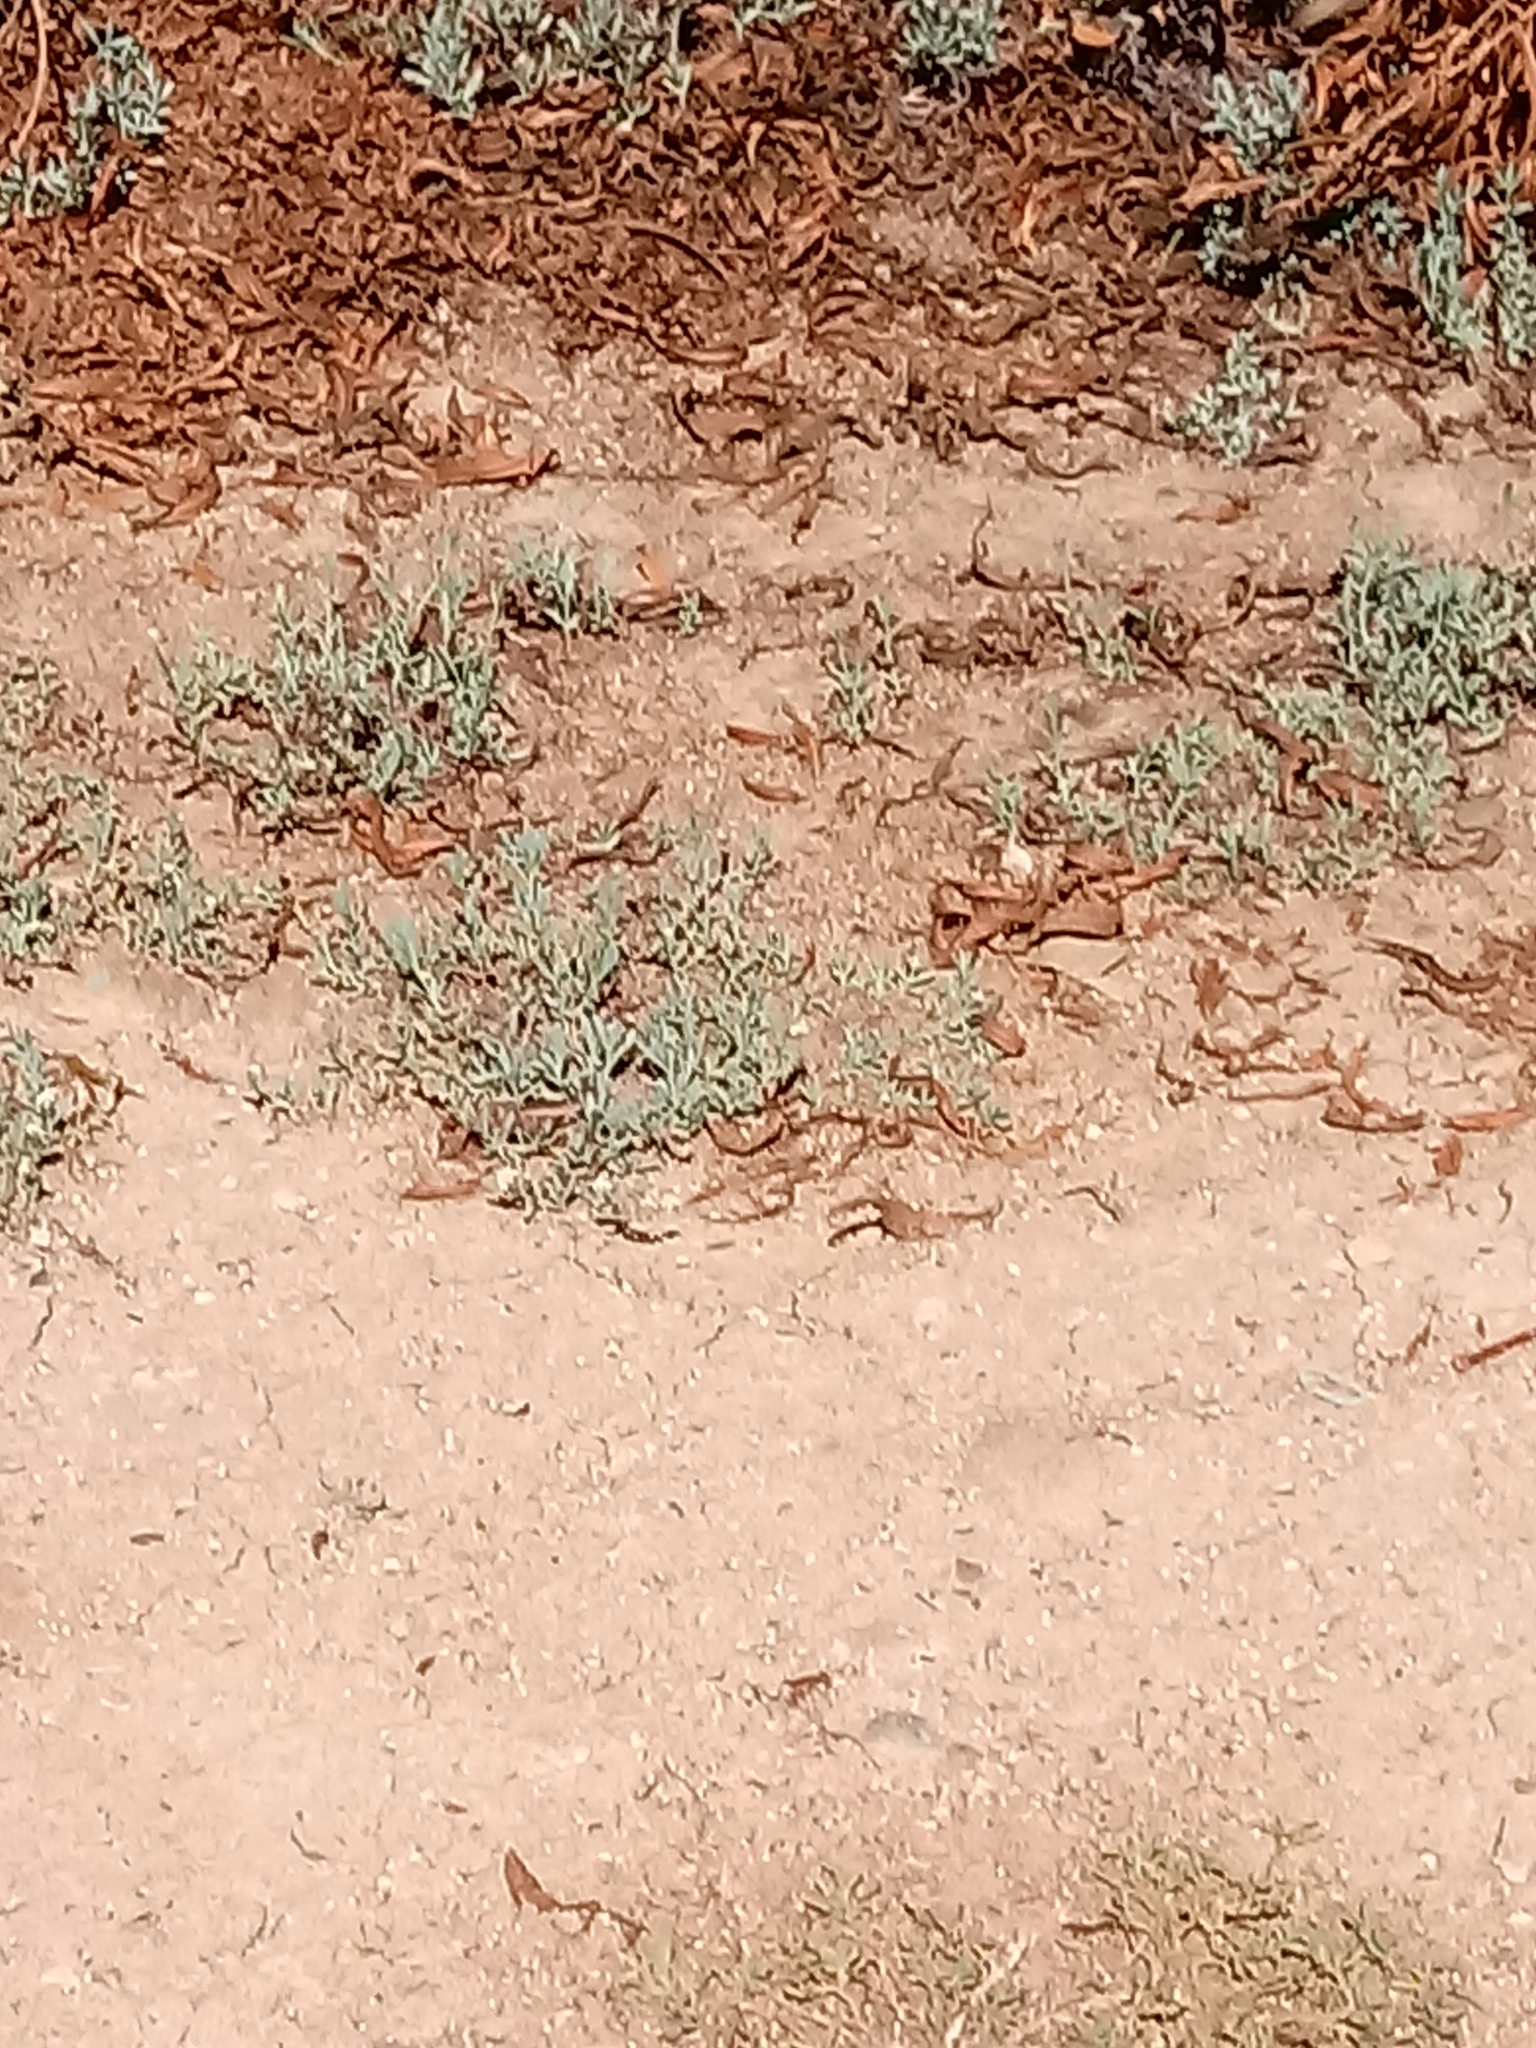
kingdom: Plantae
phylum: Tracheophyta
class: Magnoliopsida
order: Boraginales
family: Heliotropiaceae
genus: Heliotropium
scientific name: Heliotropium curassavicum
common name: Seaside heliotrope
